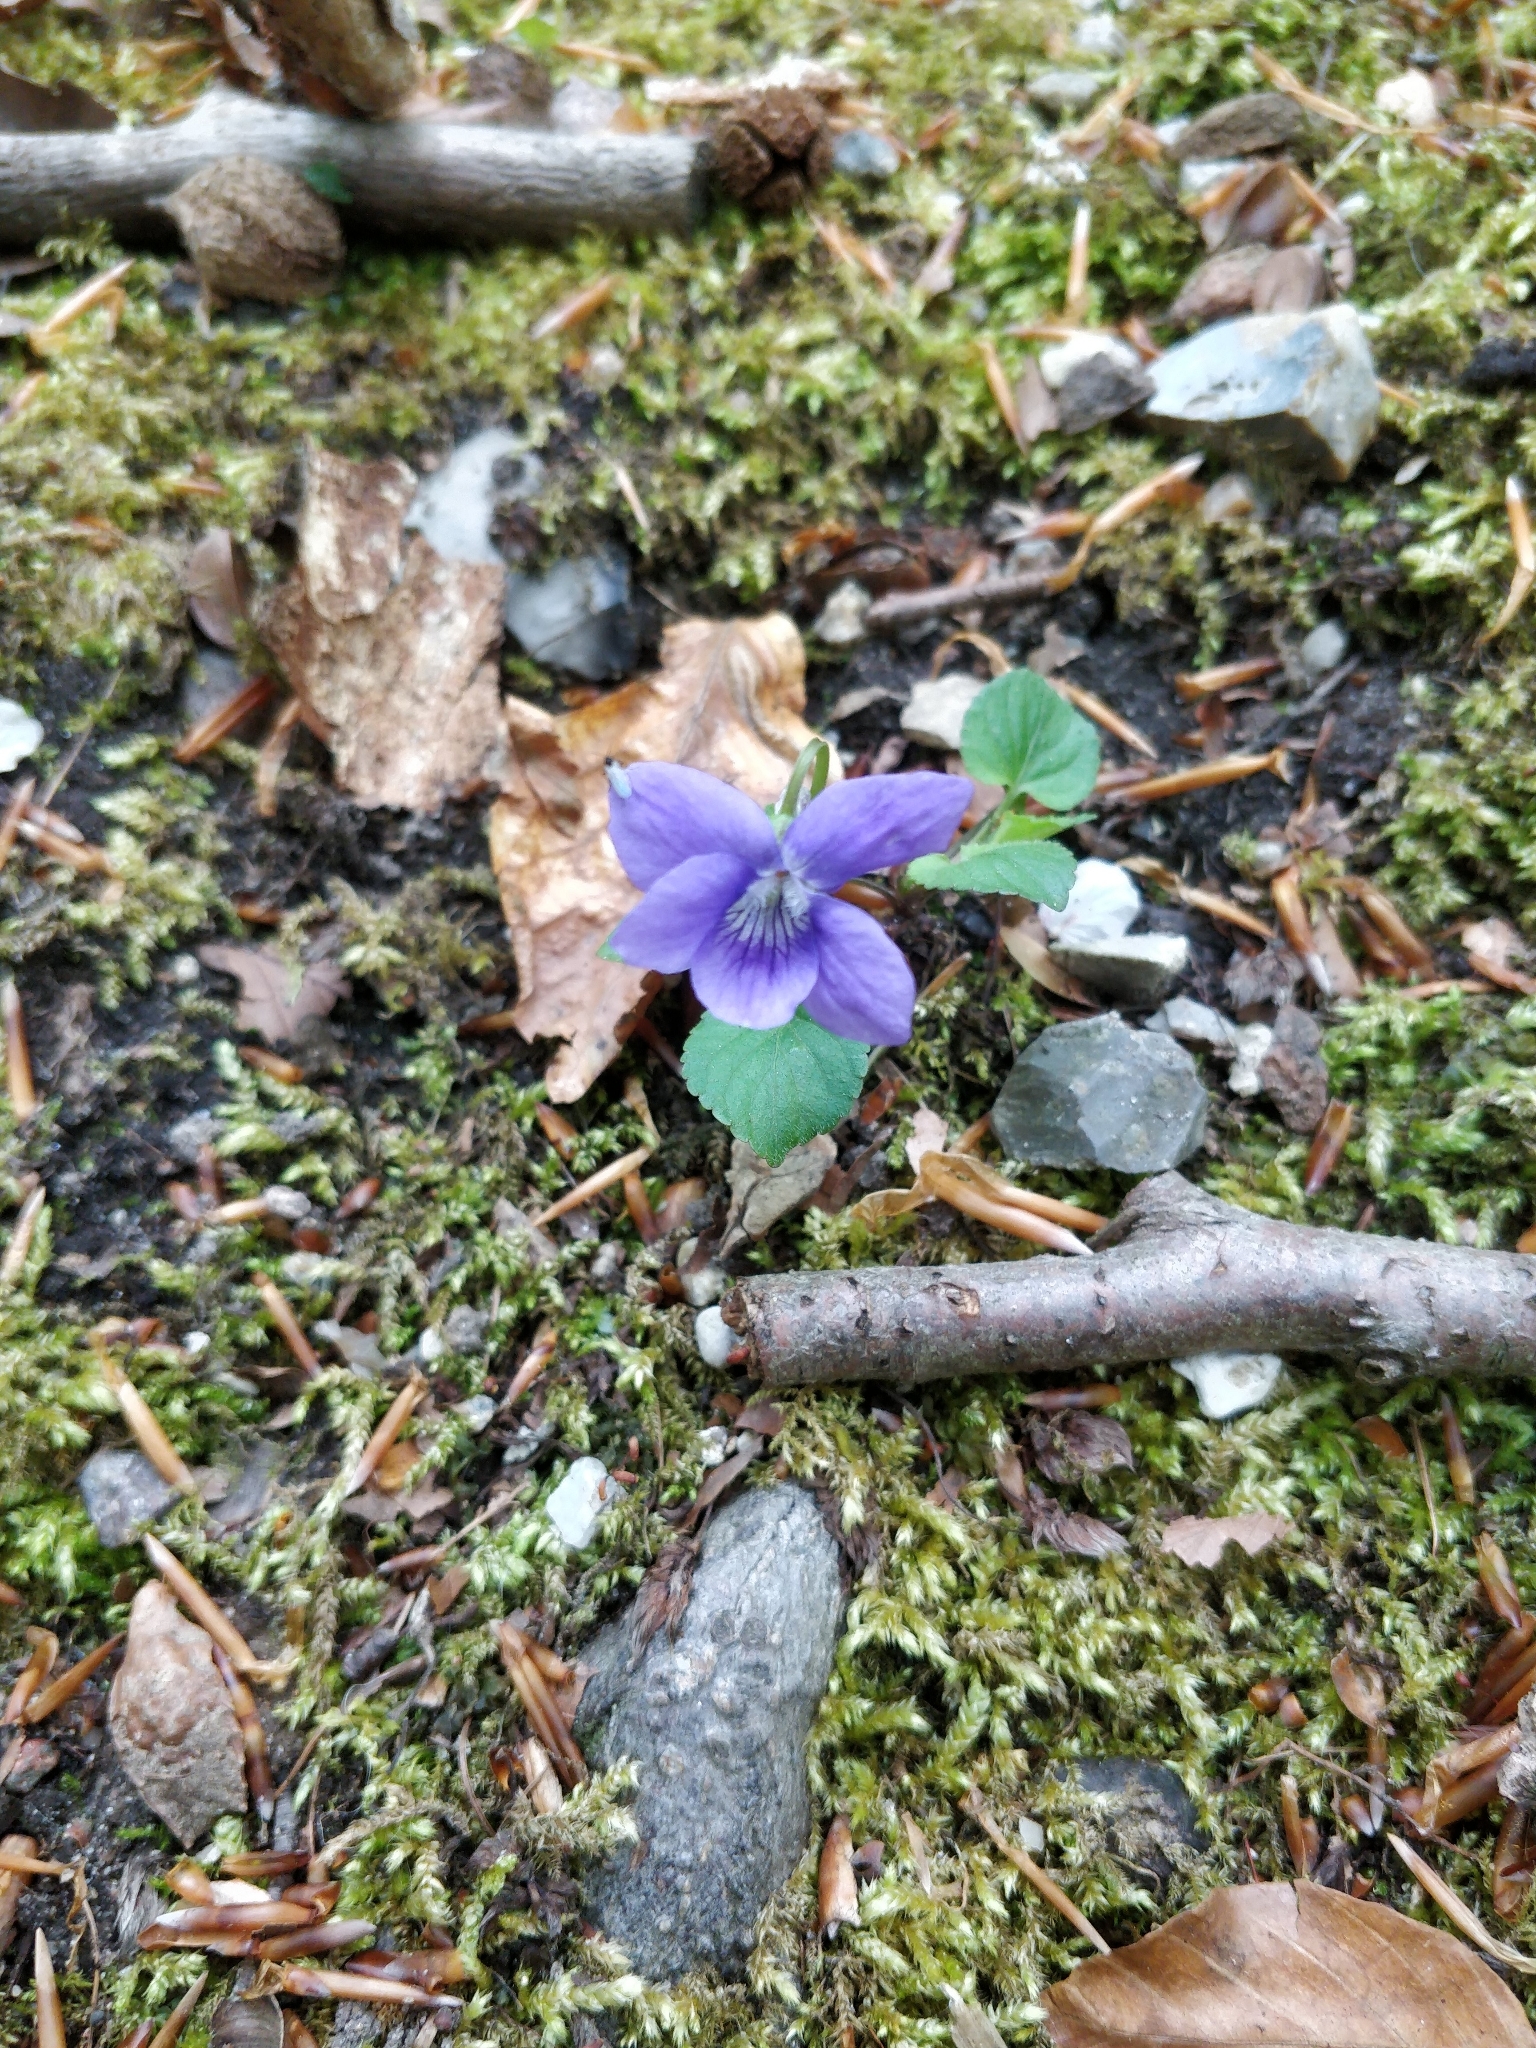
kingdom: Plantae
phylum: Tracheophyta
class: Magnoliopsida
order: Malpighiales
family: Violaceae
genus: Viola
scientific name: Viola
